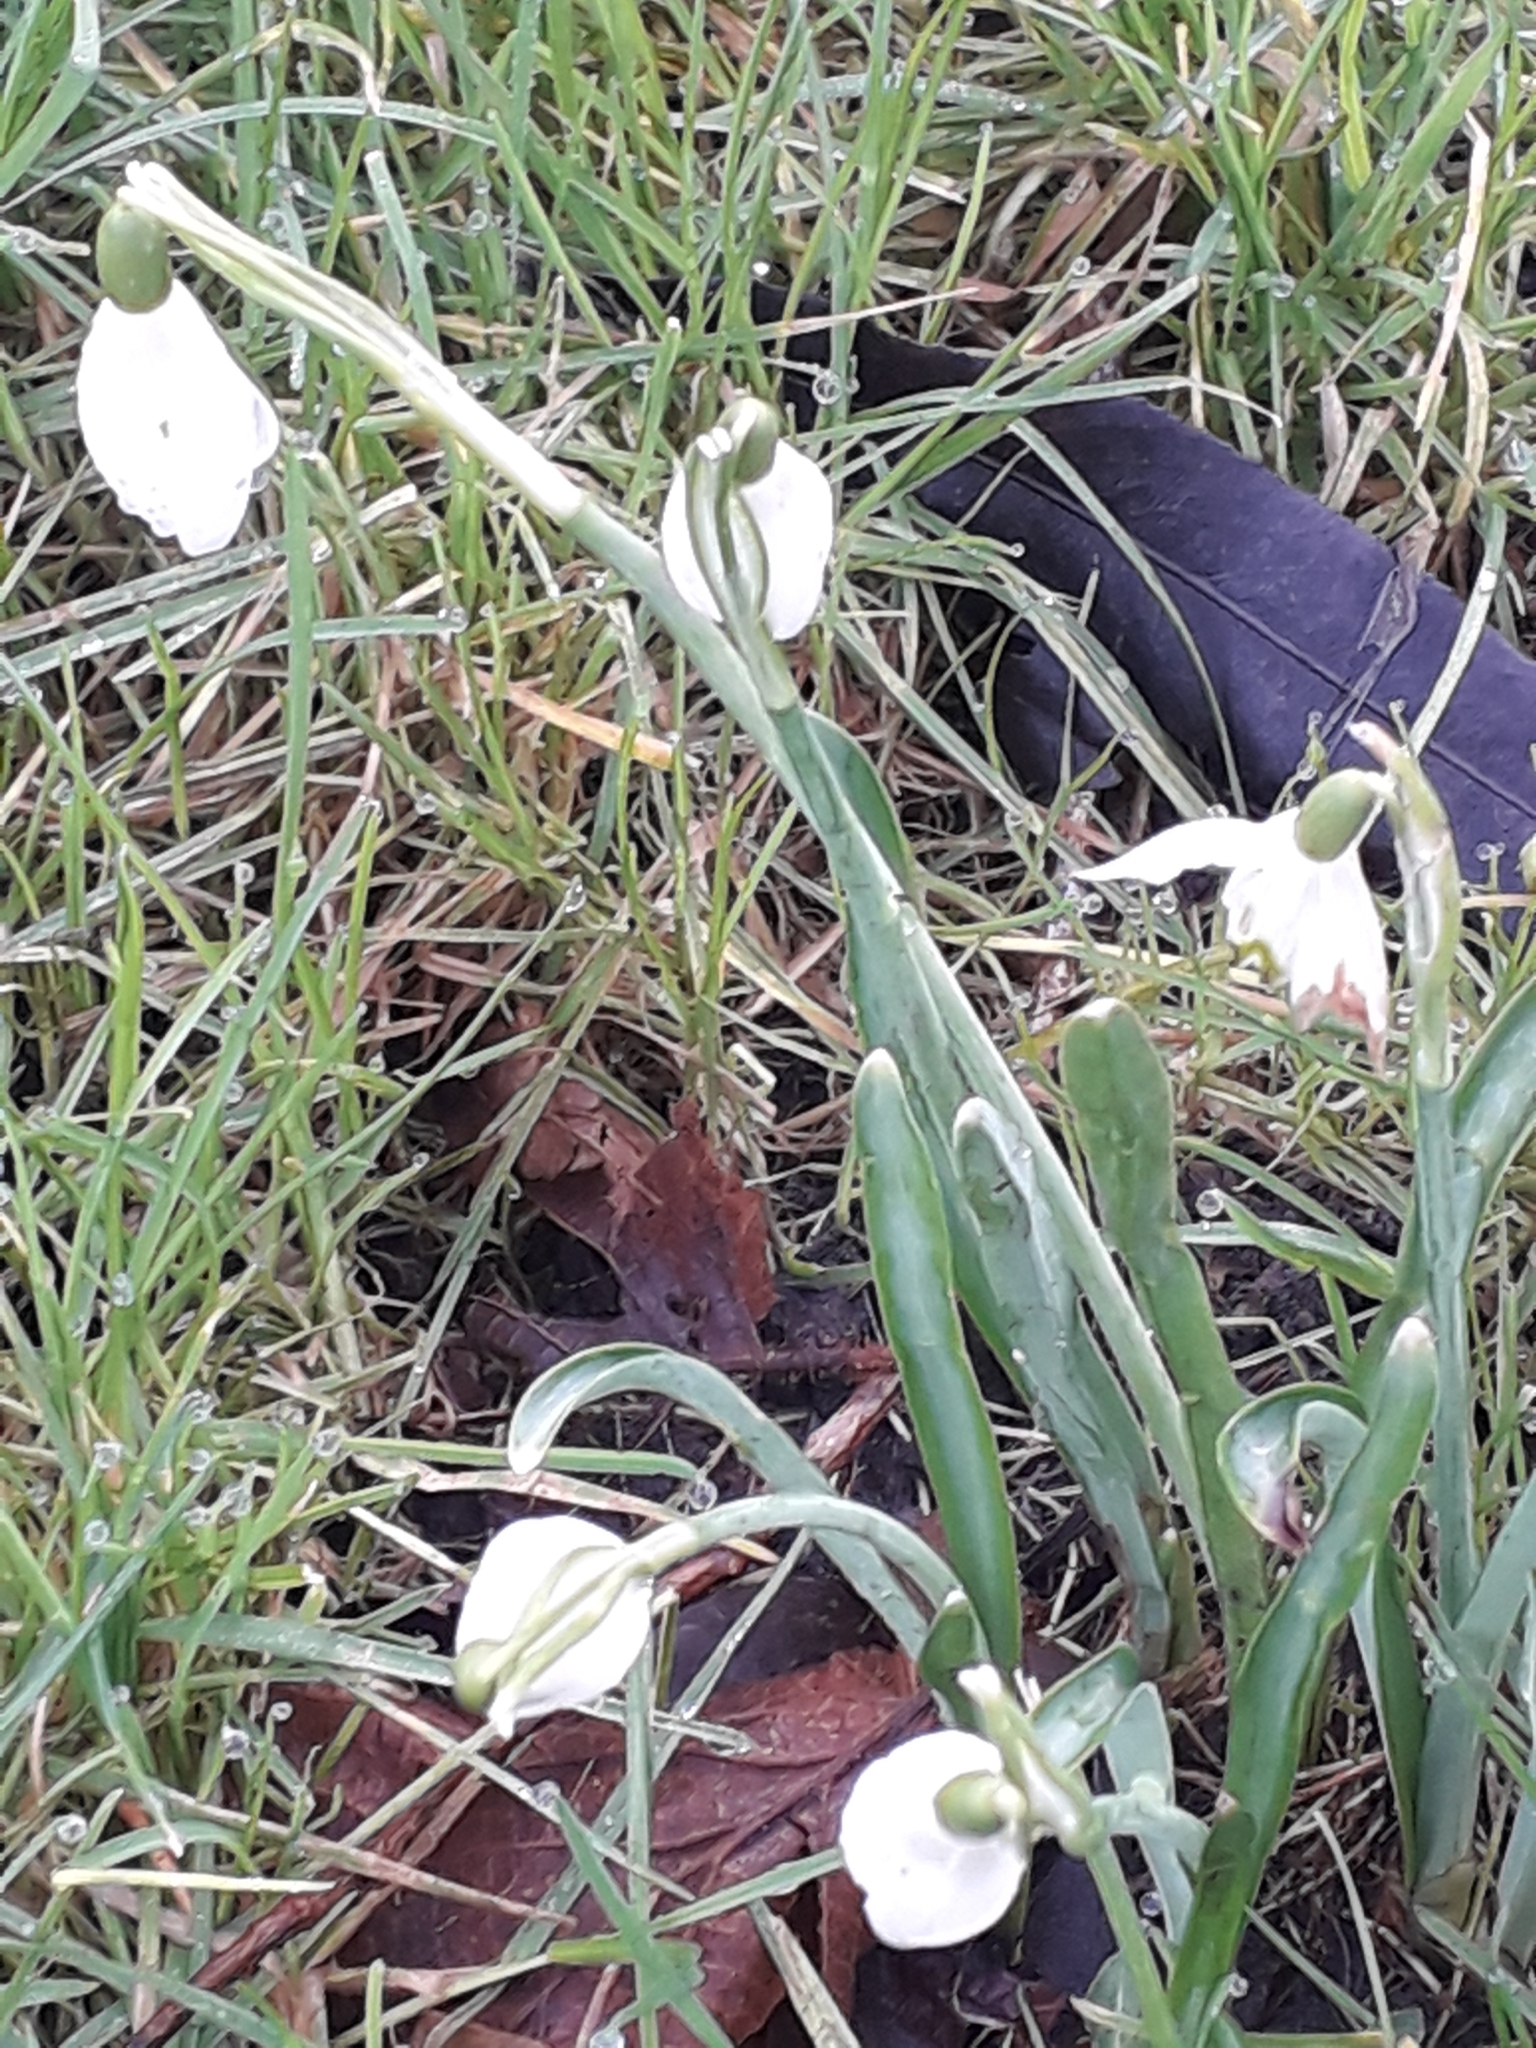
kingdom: Plantae
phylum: Tracheophyta
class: Liliopsida
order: Asparagales
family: Amaryllidaceae
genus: Galanthus
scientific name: Galanthus nivalis
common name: Snowdrop
